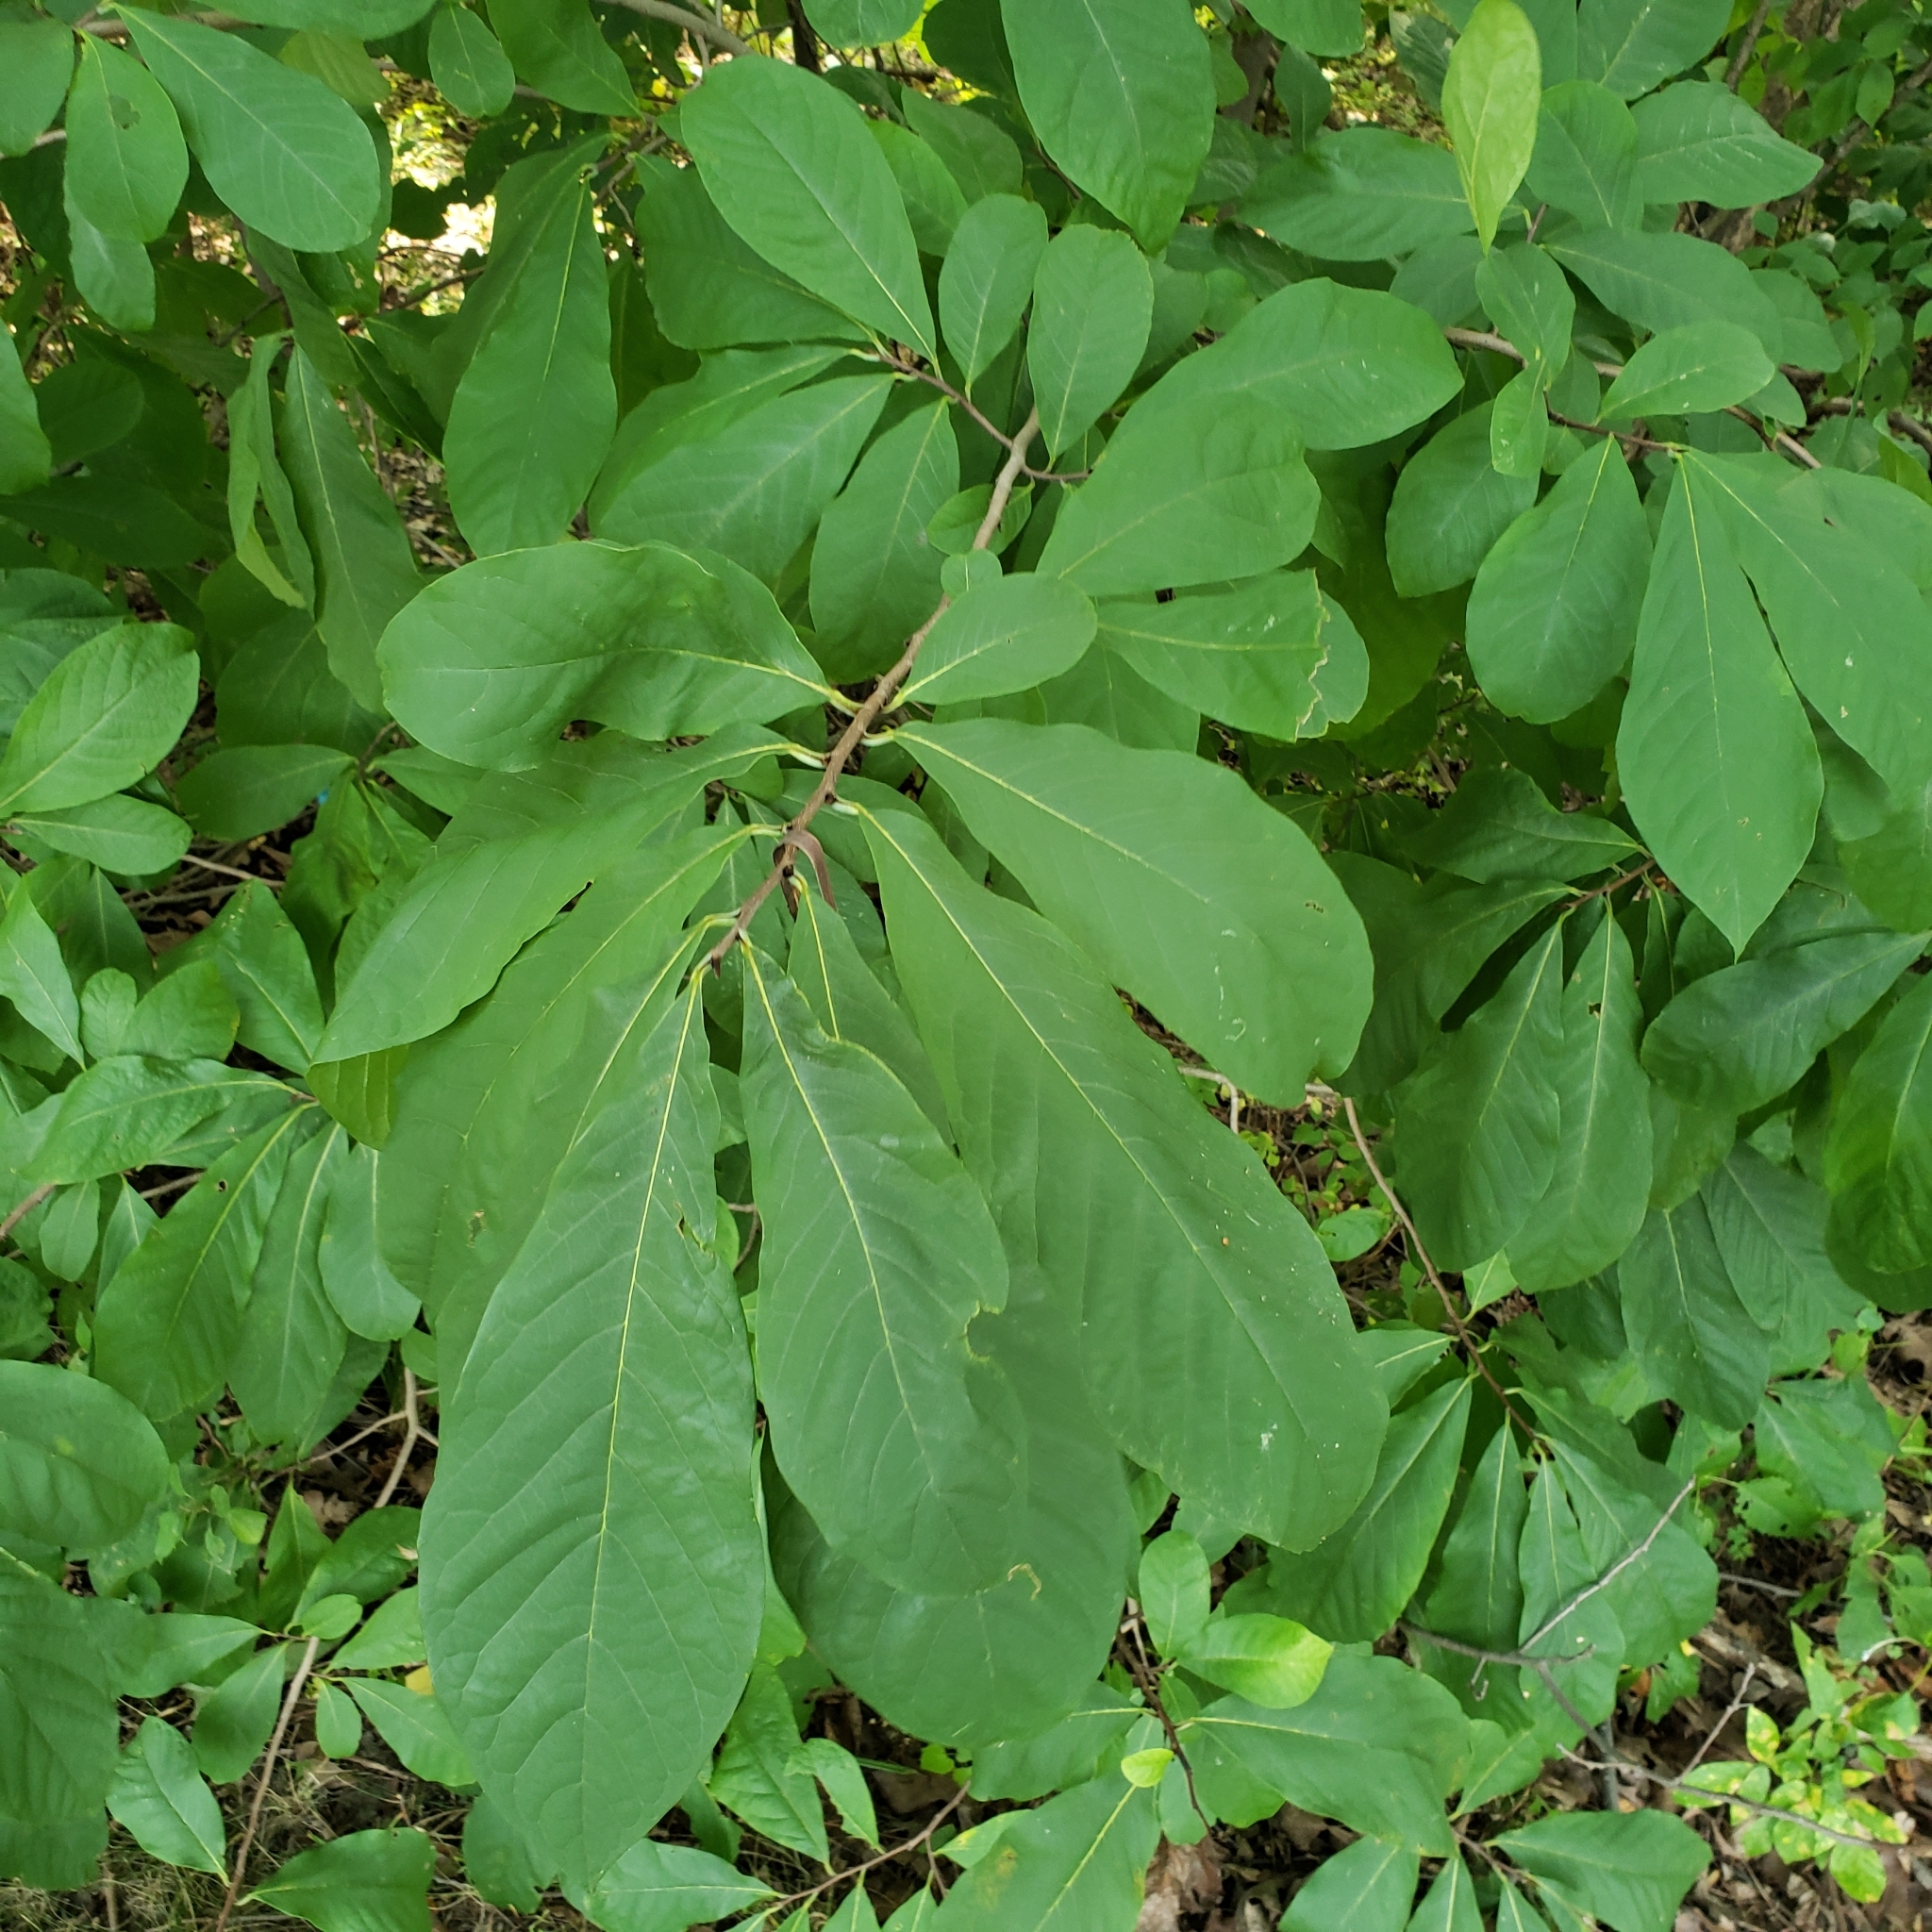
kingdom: Plantae
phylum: Tracheophyta
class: Magnoliopsida
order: Magnoliales
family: Annonaceae
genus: Asimina
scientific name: Asimina triloba
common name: Dog-banana
